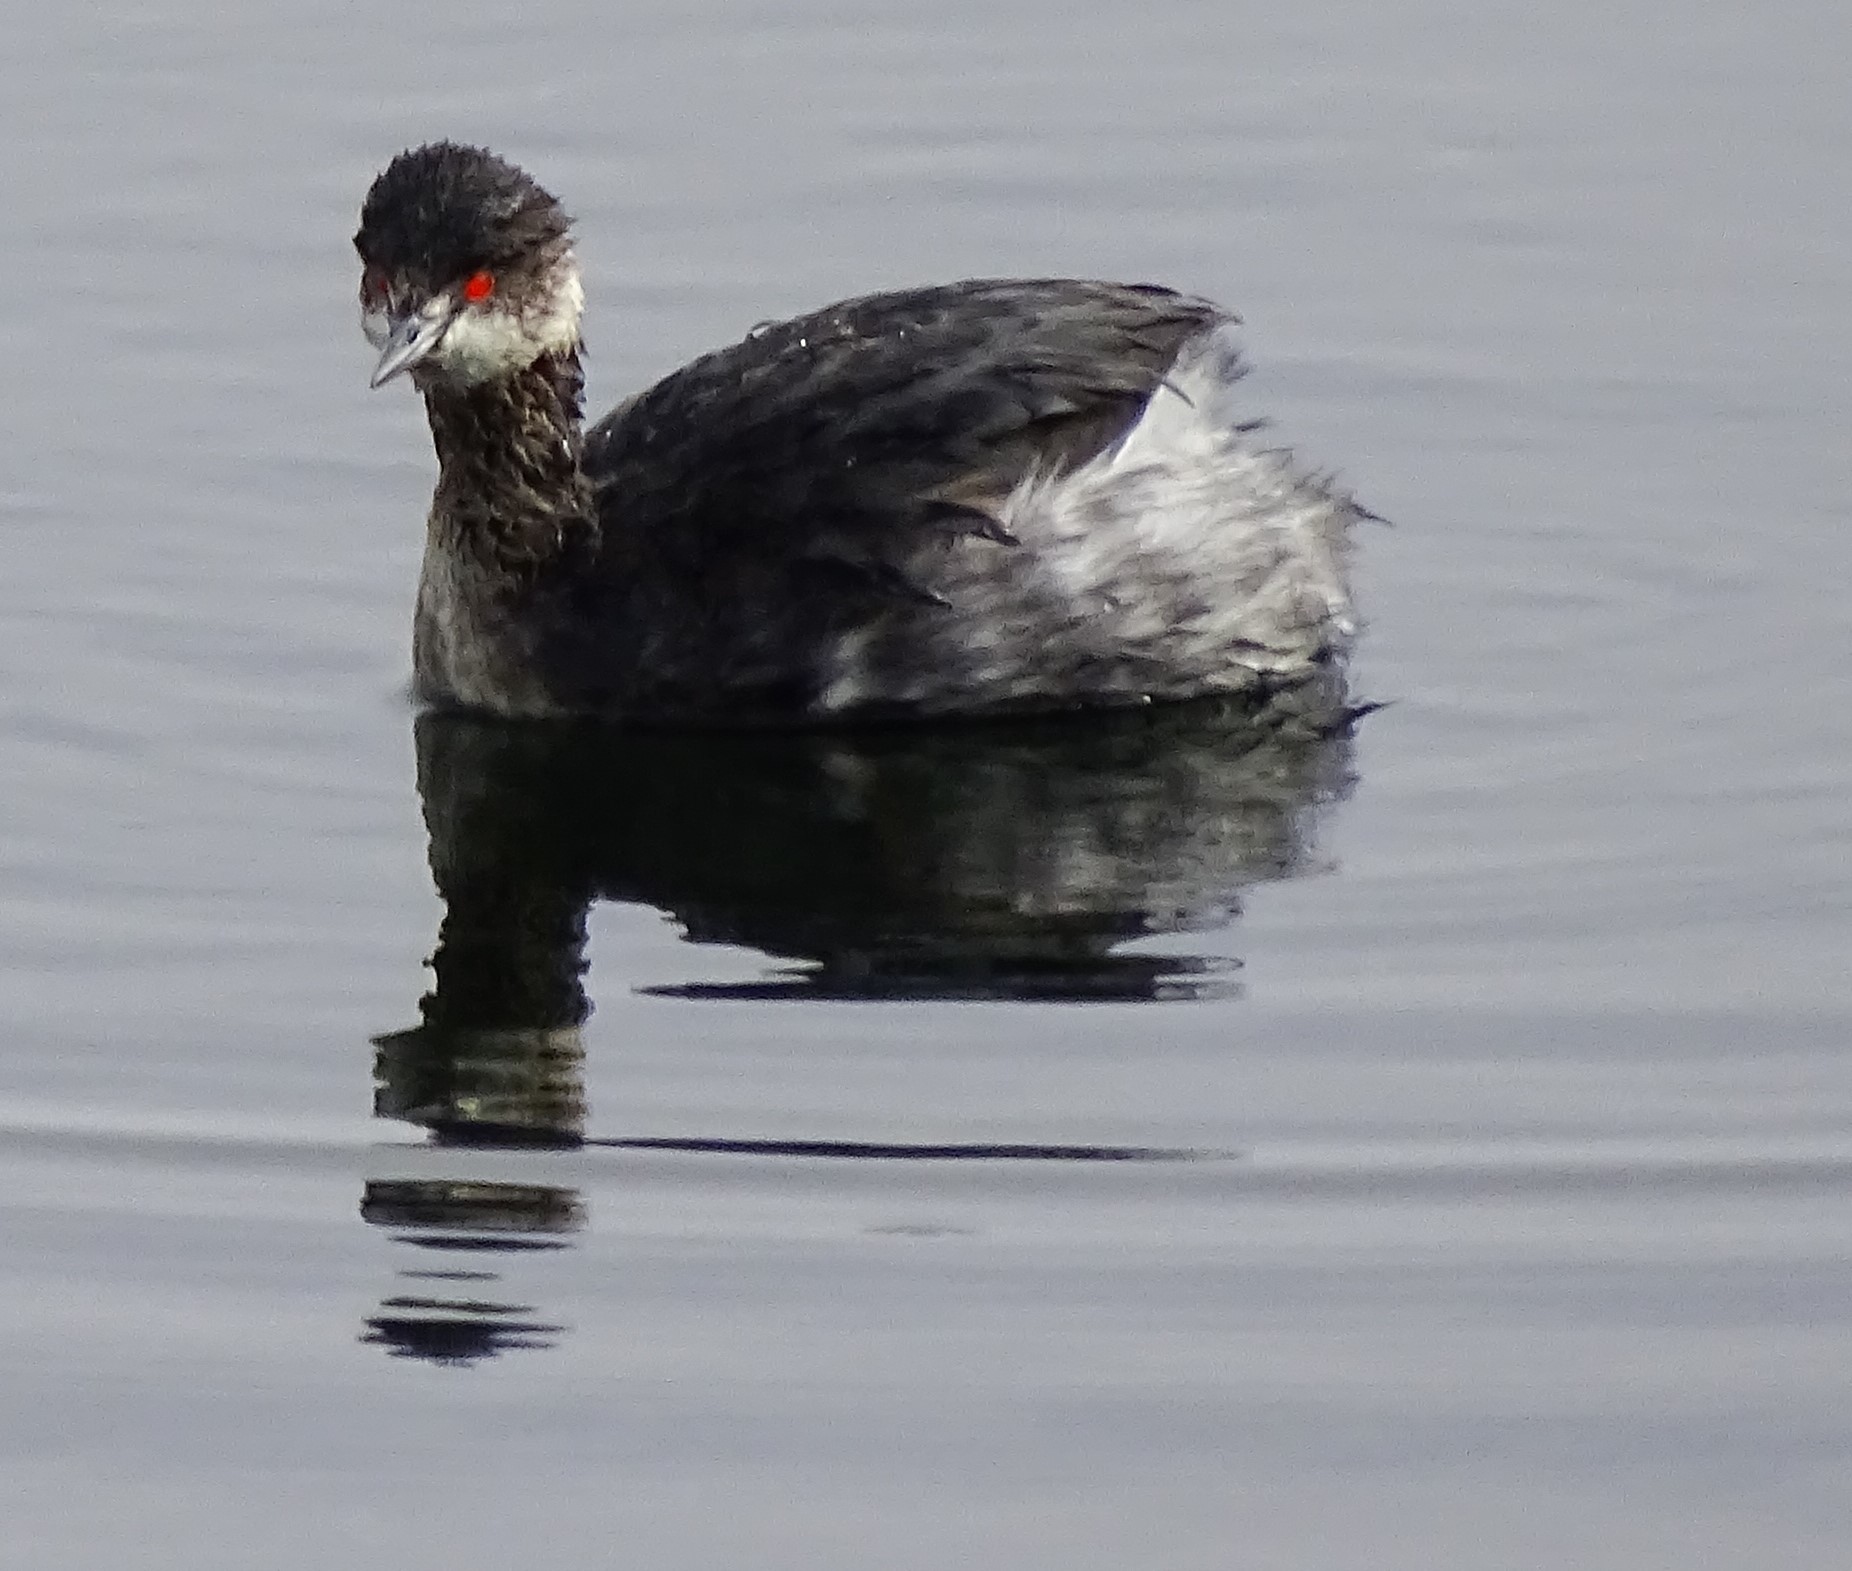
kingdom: Animalia
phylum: Chordata
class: Aves
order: Podicipediformes
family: Podicipedidae
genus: Podiceps
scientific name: Podiceps nigricollis
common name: Black-necked grebe
